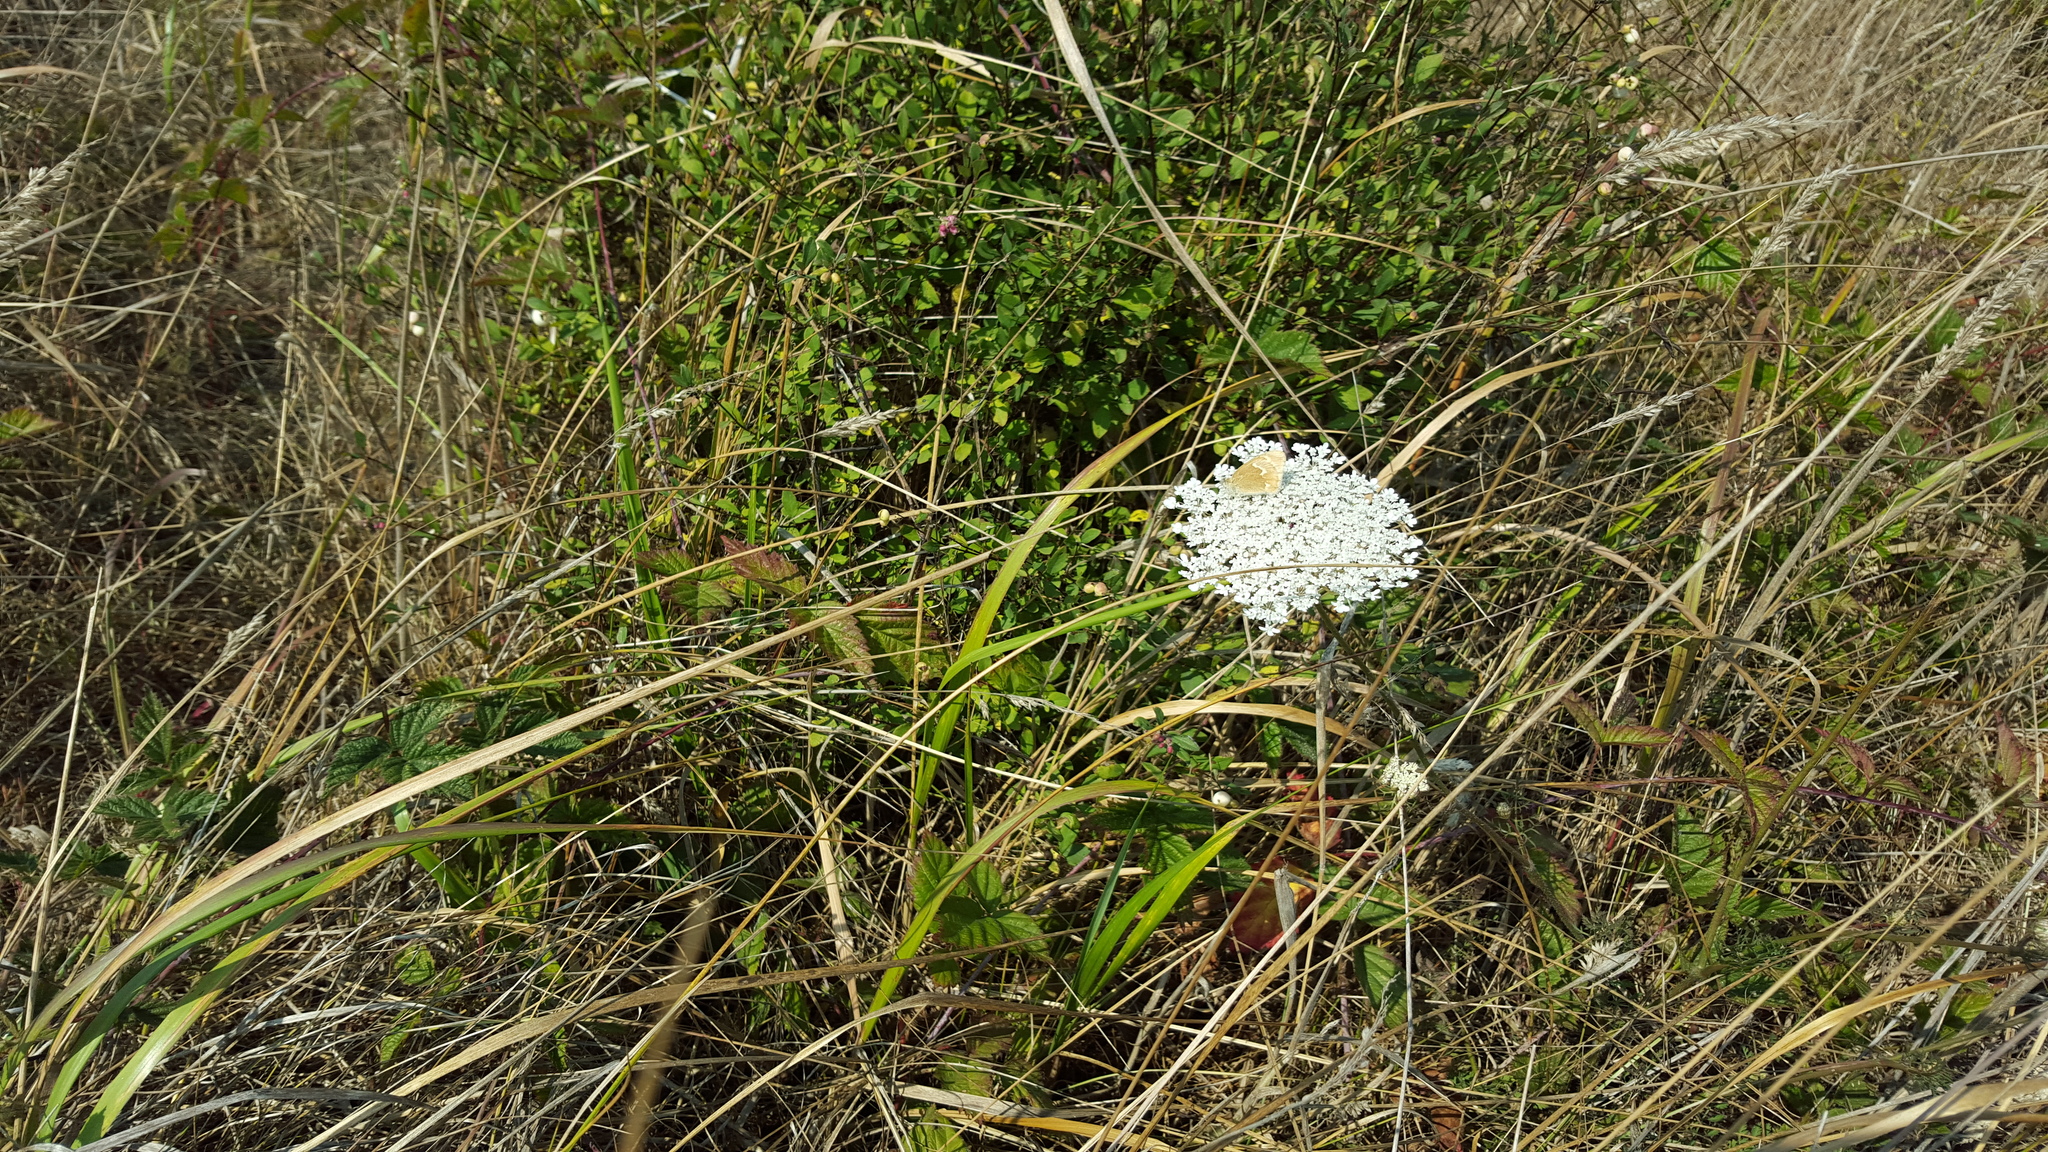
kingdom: Animalia
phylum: Arthropoda
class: Insecta
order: Lepidoptera
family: Nymphalidae
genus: Coenonympha
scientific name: Coenonympha california
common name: Common ringlet
